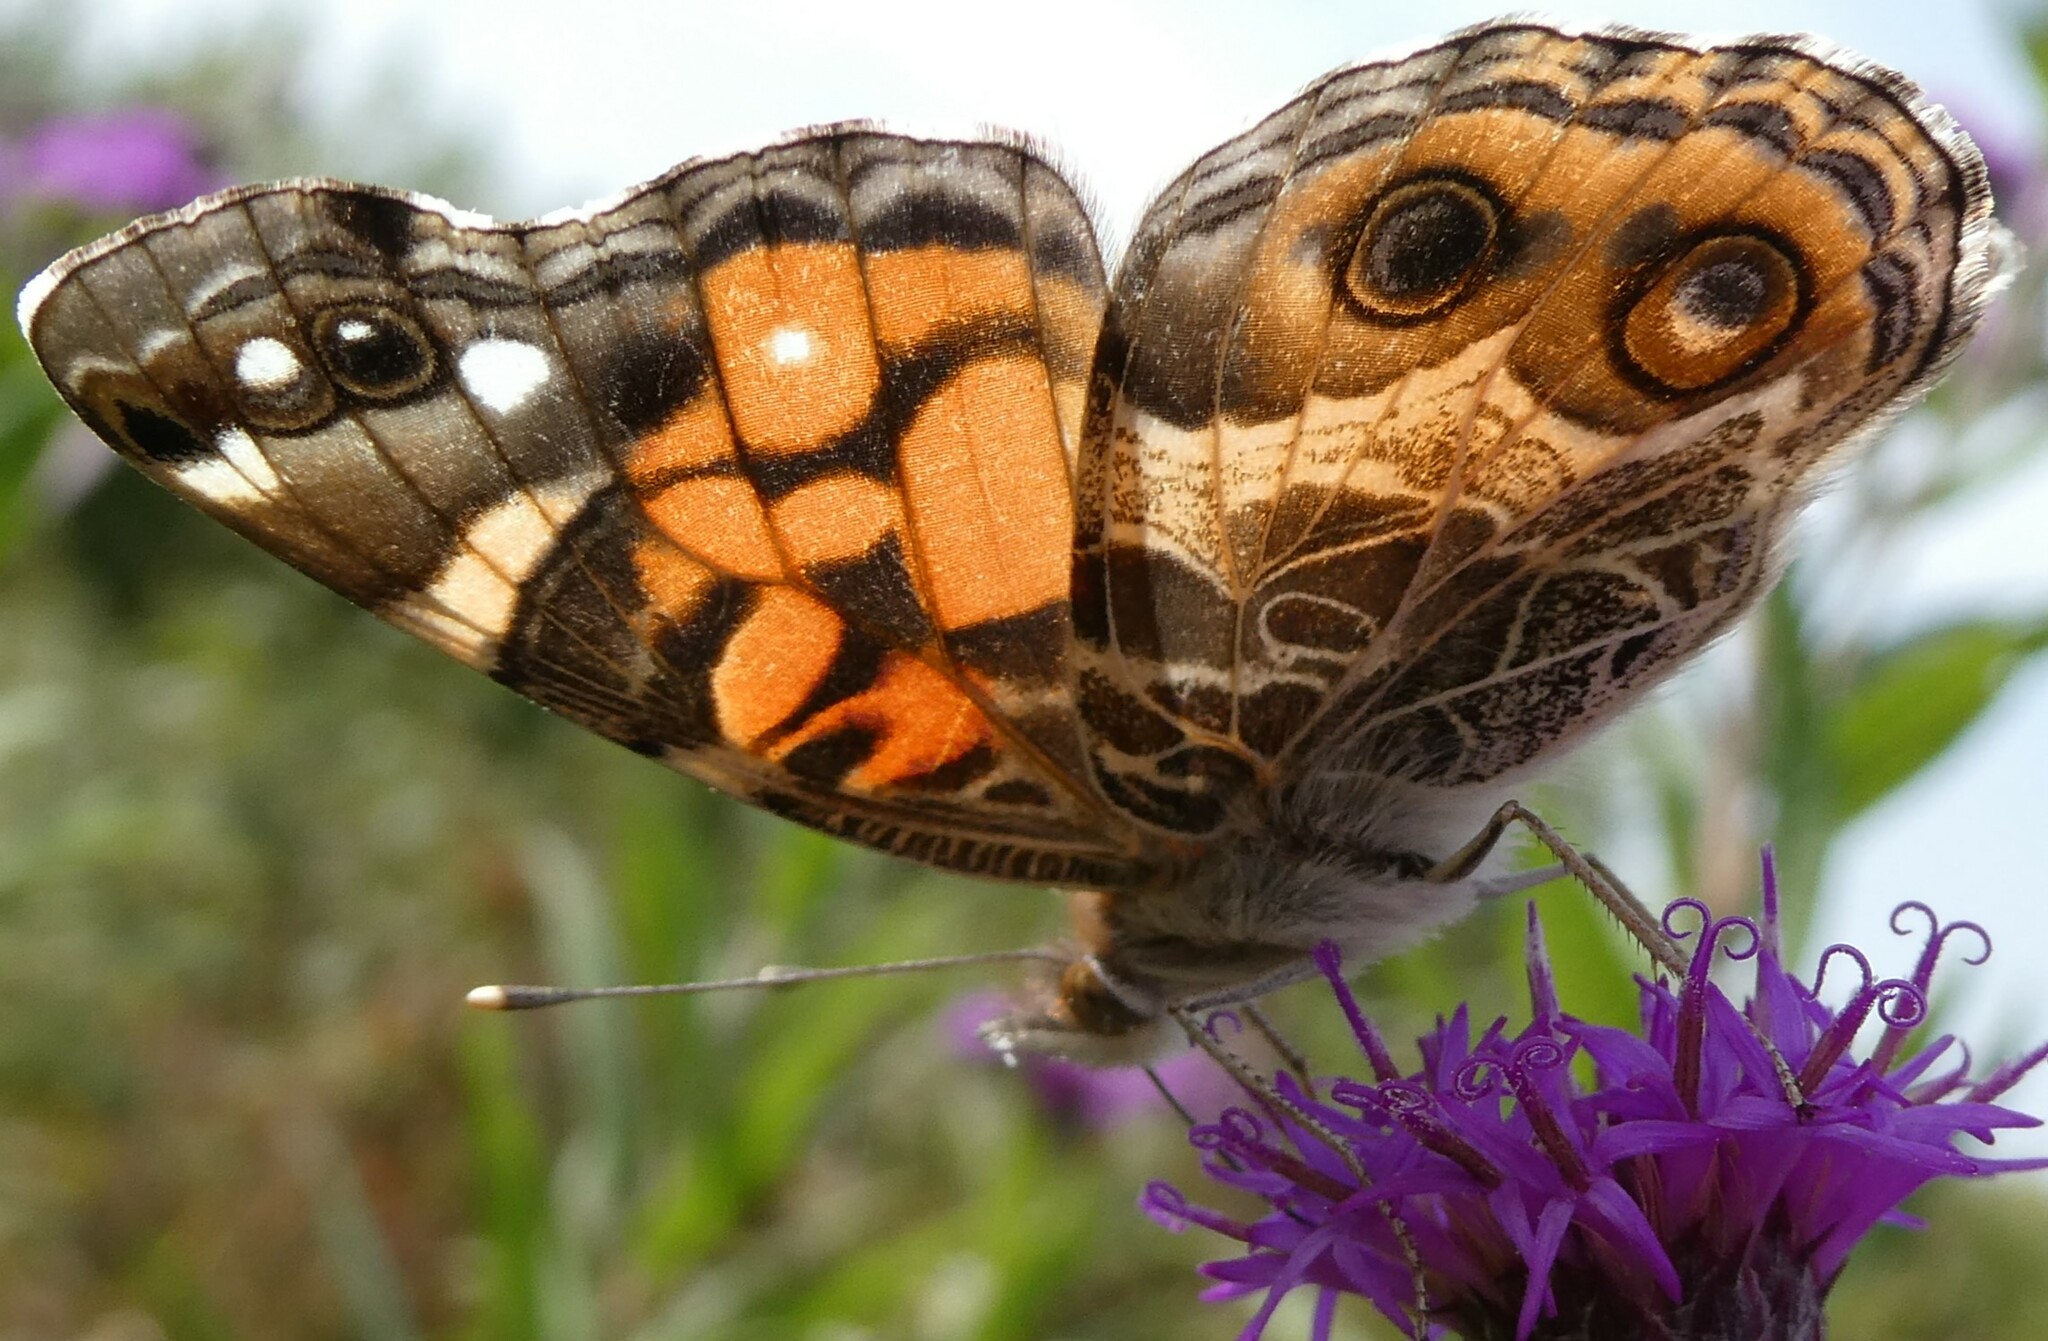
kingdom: Animalia
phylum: Arthropoda
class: Insecta
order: Lepidoptera
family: Nymphalidae
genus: Vanessa
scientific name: Vanessa virginiensis
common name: American lady
